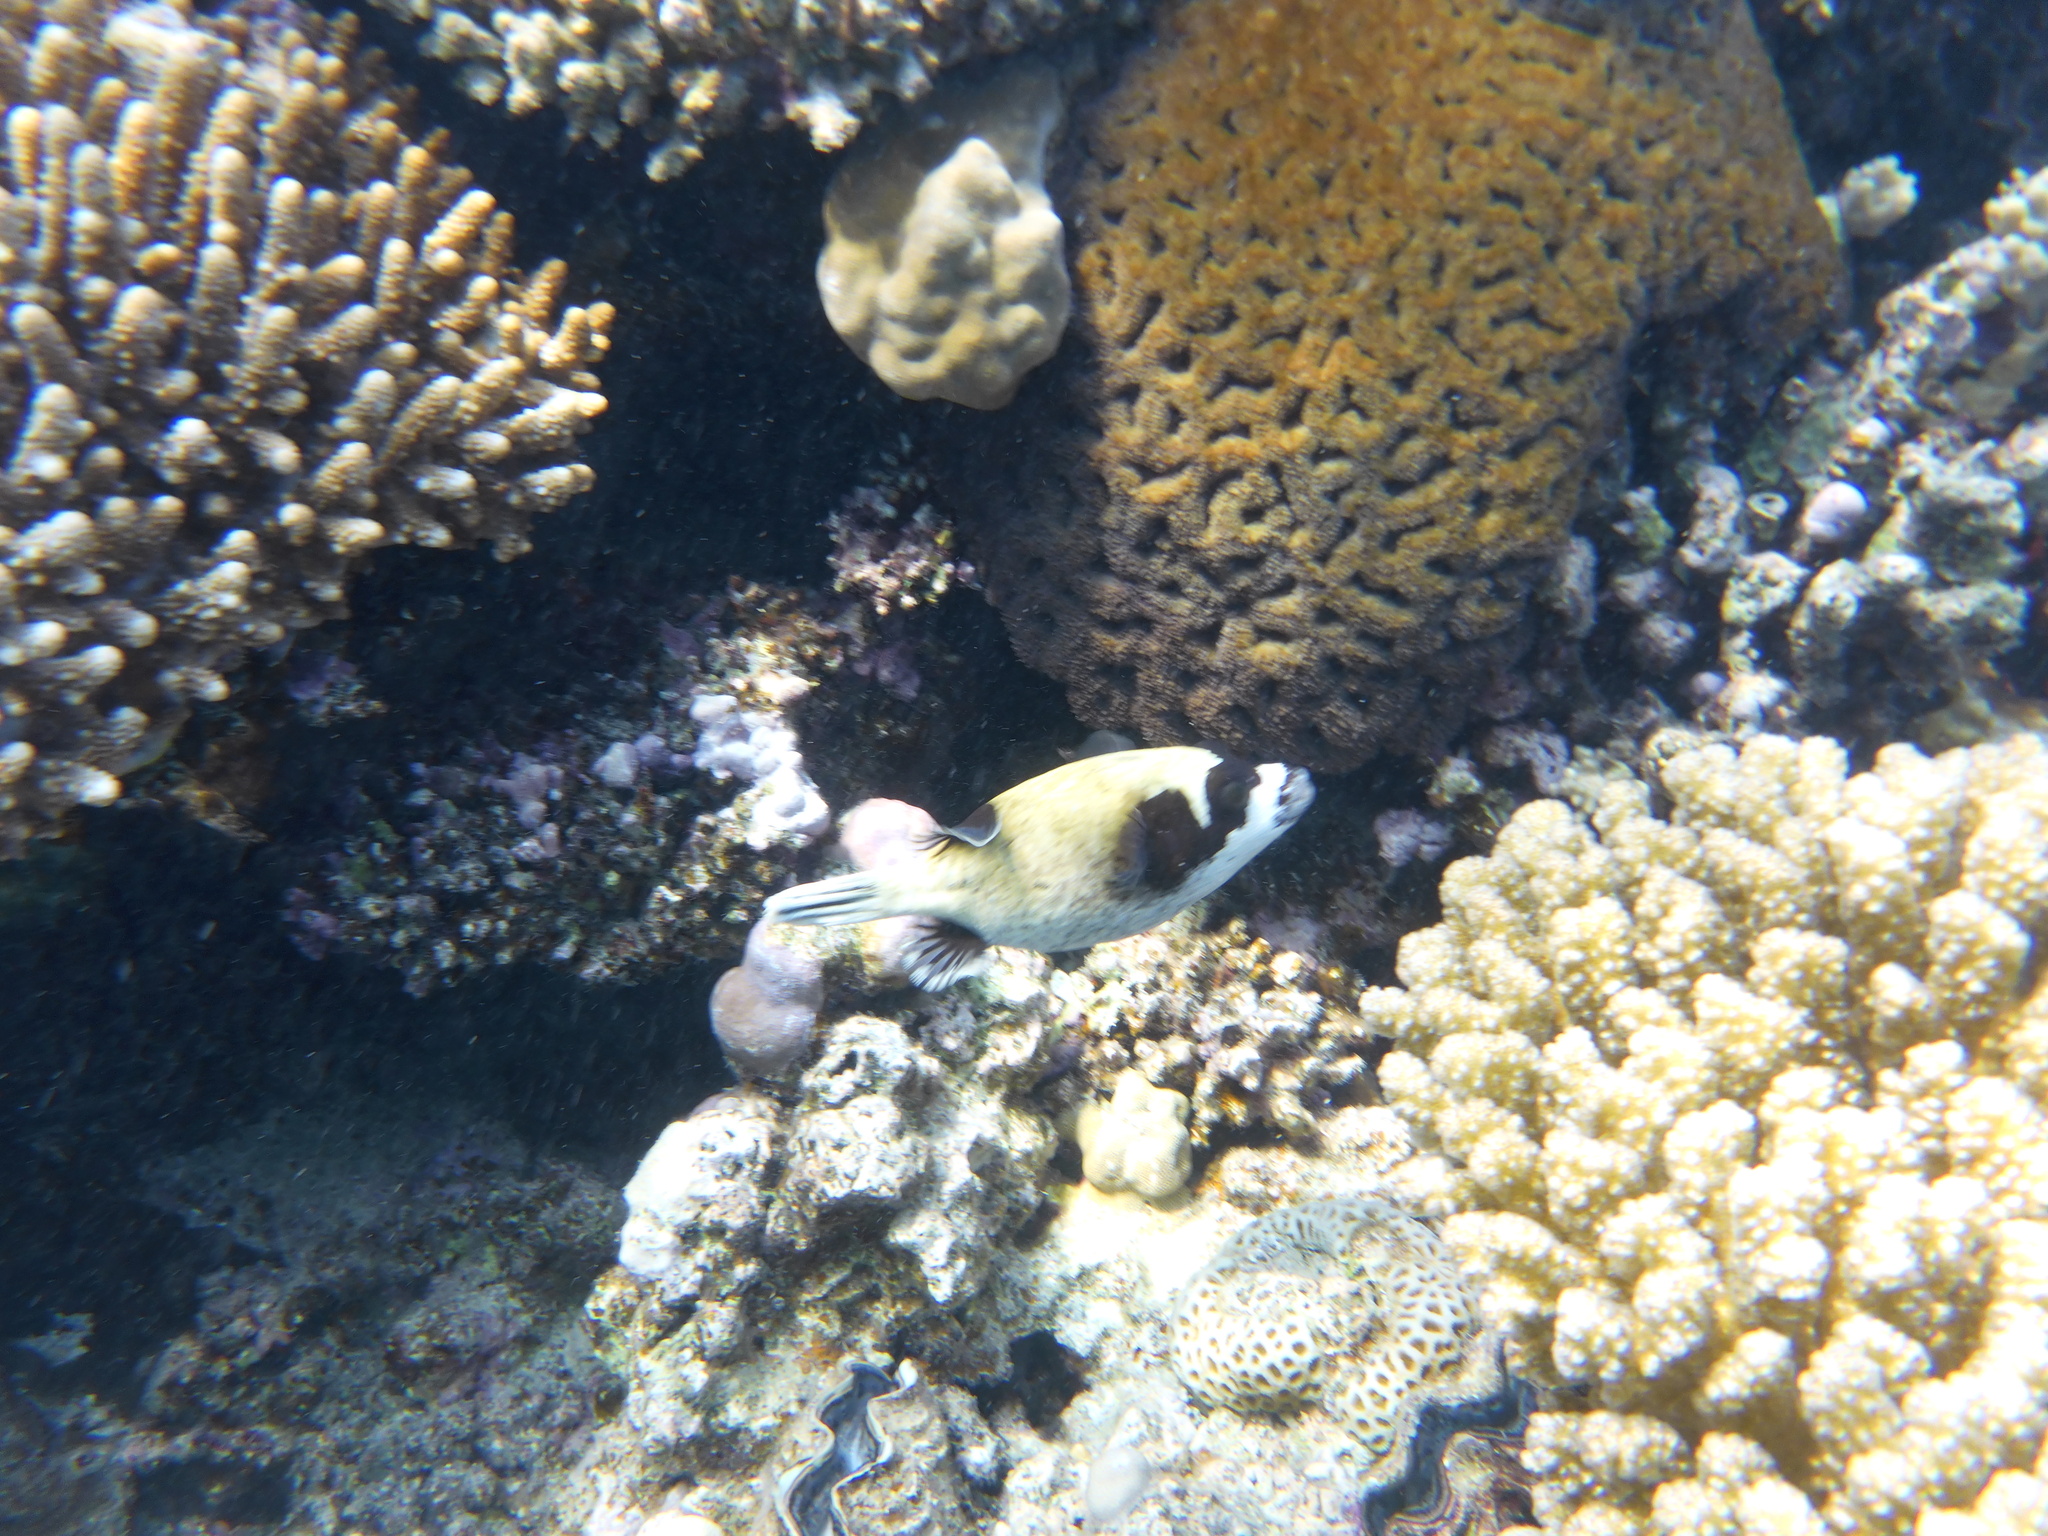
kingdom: Animalia
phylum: Chordata
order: Tetraodontiformes
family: Tetraodontidae
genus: Arothron
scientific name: Arothron diadematus
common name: Masked puffer
